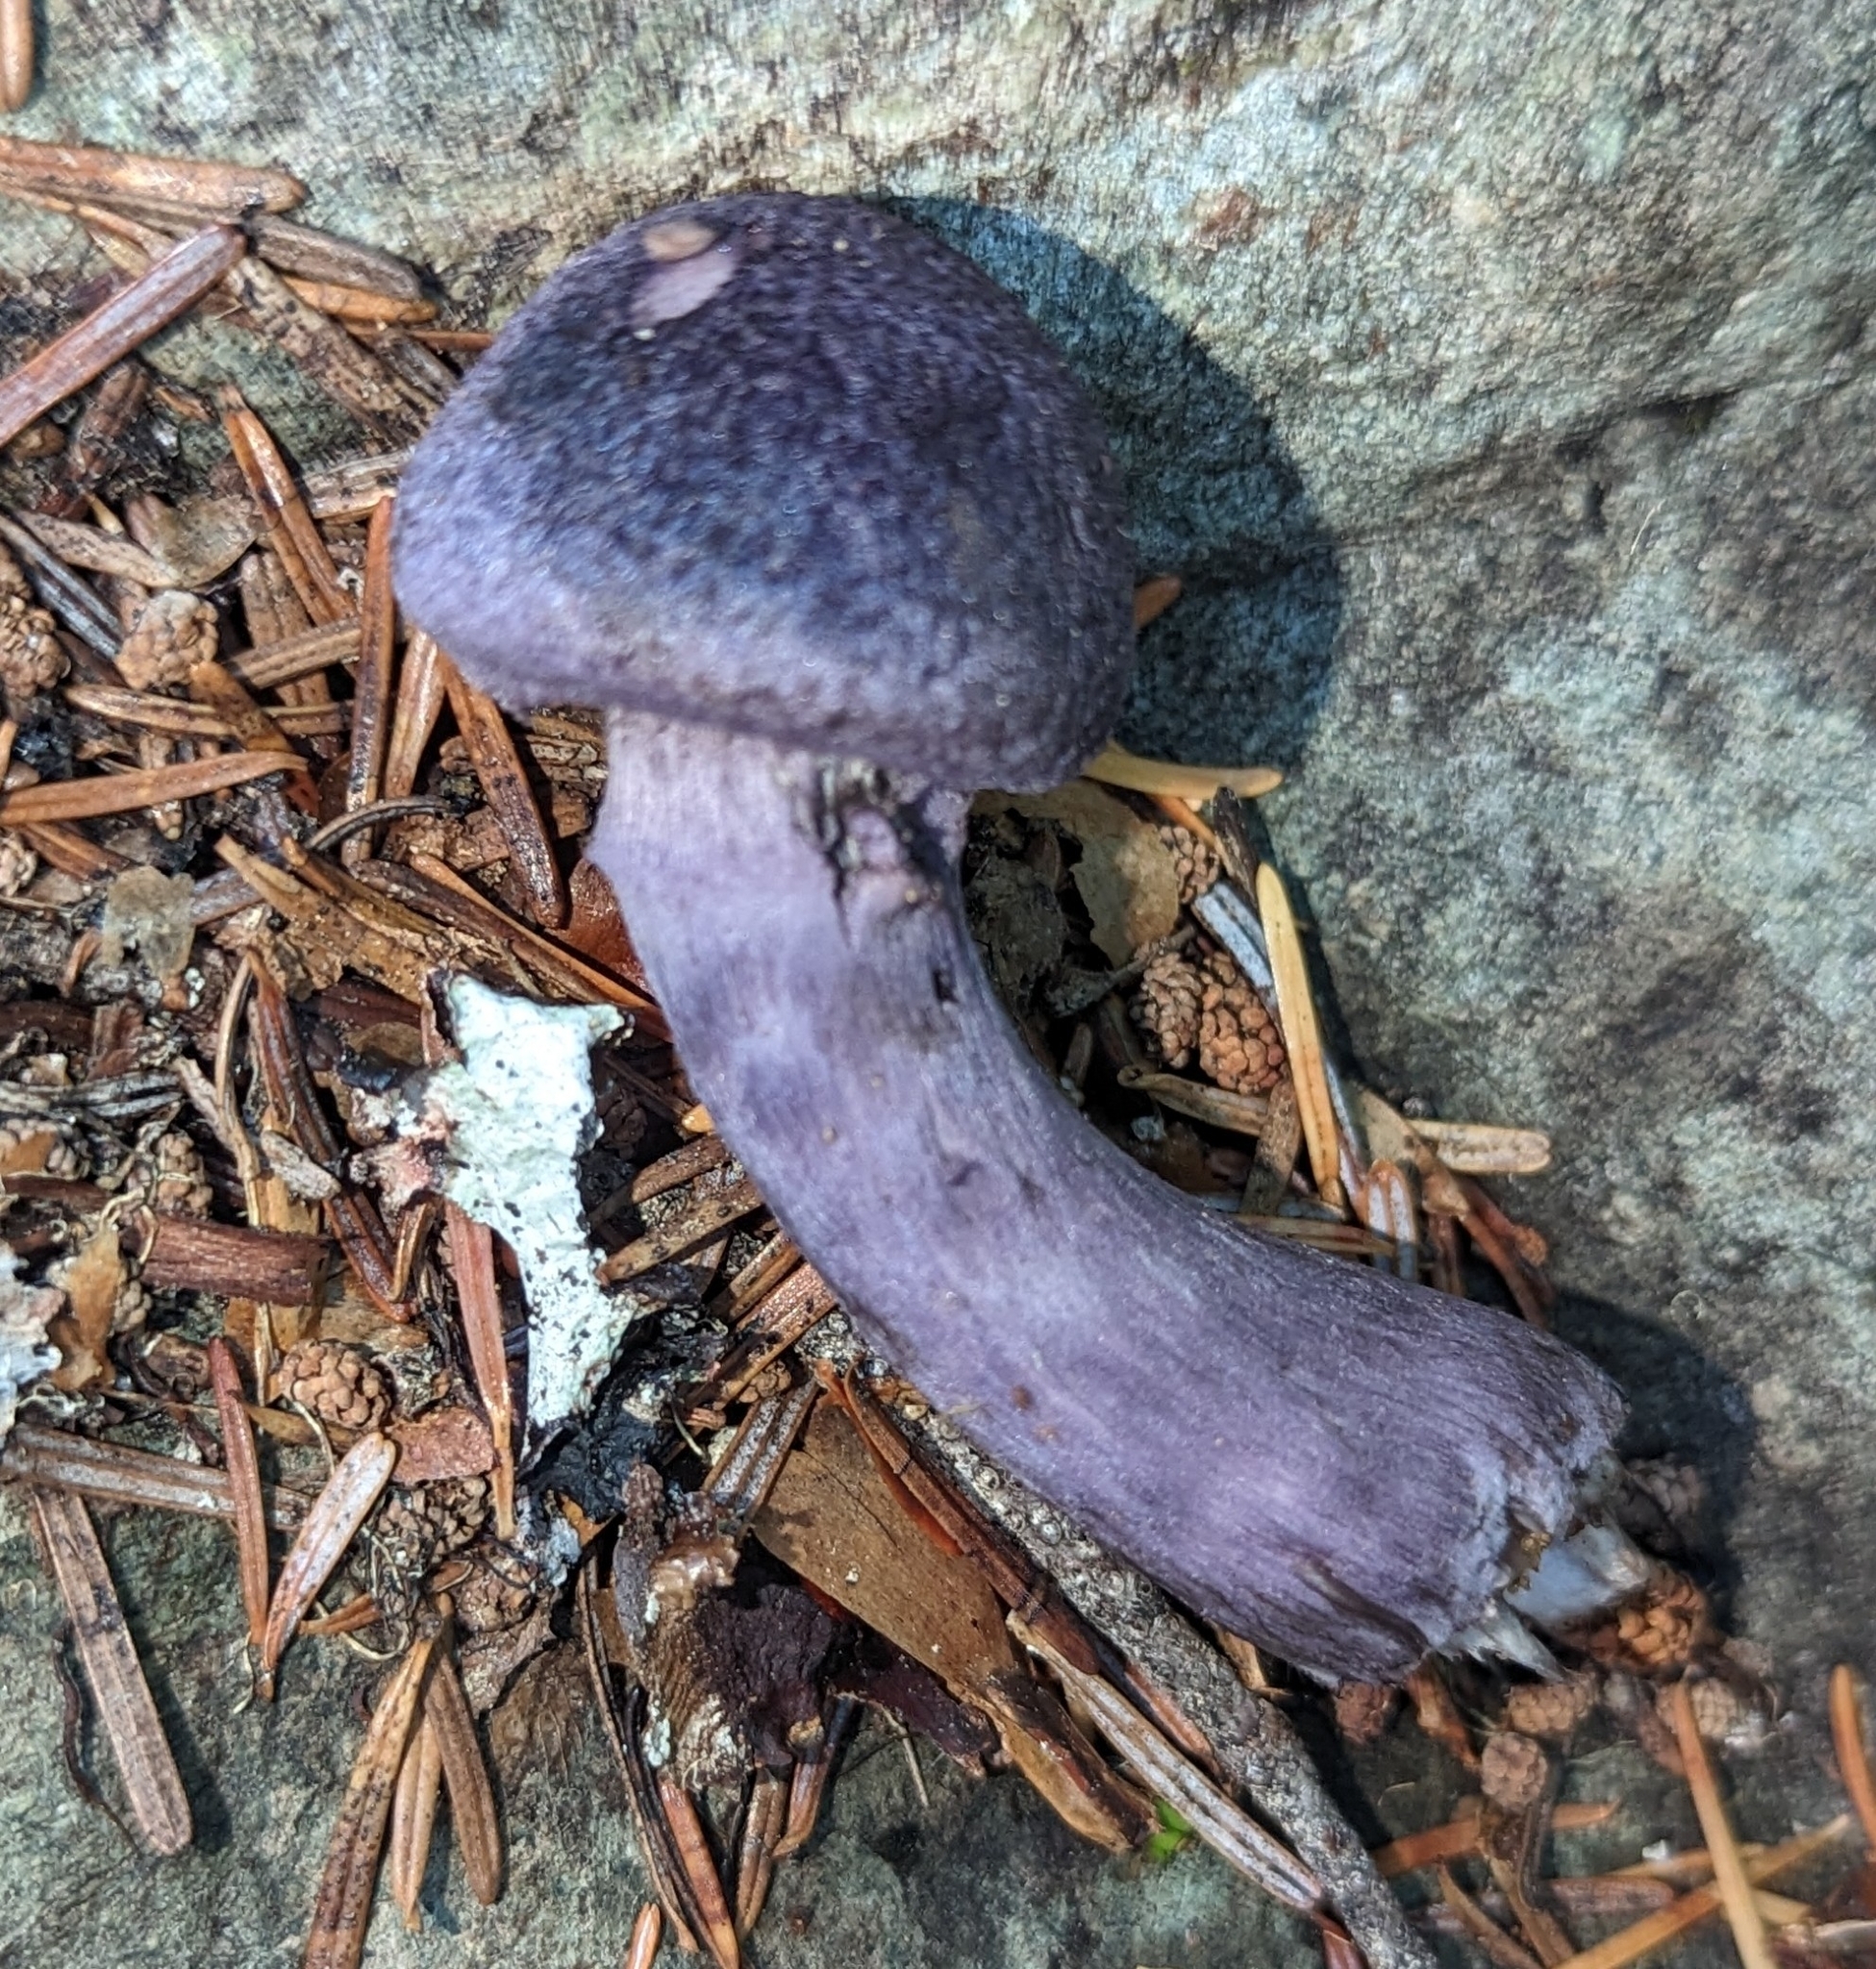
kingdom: Fungi
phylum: Basidiomycota
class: Agaricomycetes
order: Agaricales
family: Cortinariaceae
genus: Cortinarius
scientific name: Cortinarius violaceus
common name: Violet webcap
